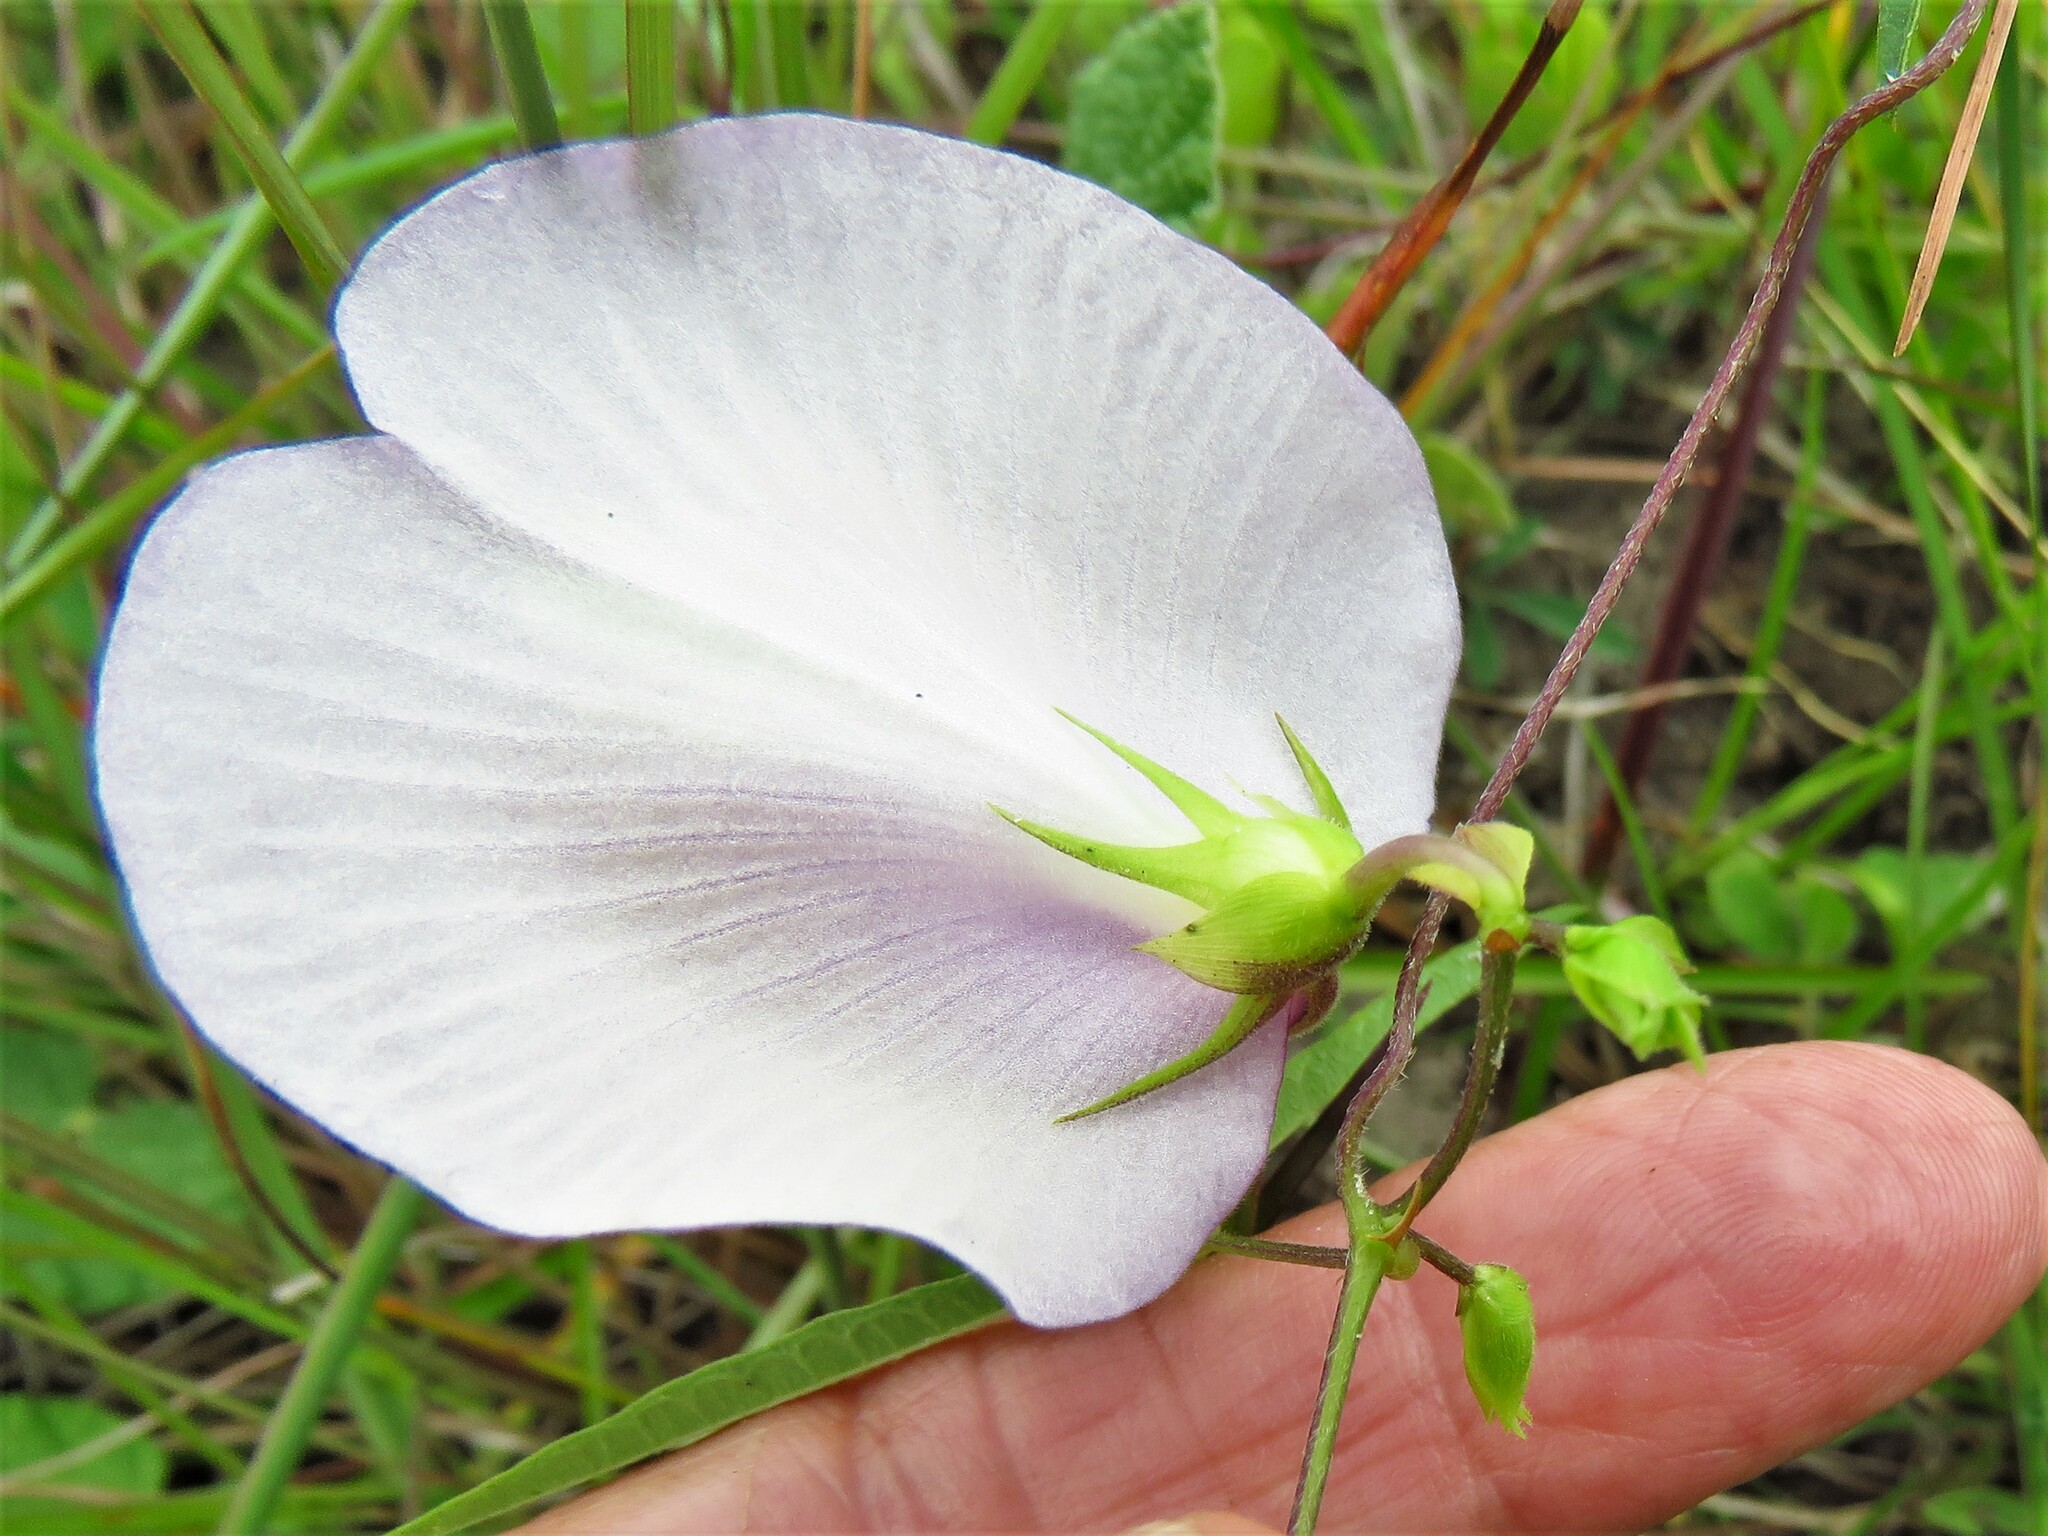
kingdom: Plantae
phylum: Tracheophyta
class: Magnoliopsida
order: Fabales
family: Fabaceae
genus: Centrosema
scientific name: Centrosema virginianum
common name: Butterfly-pea
